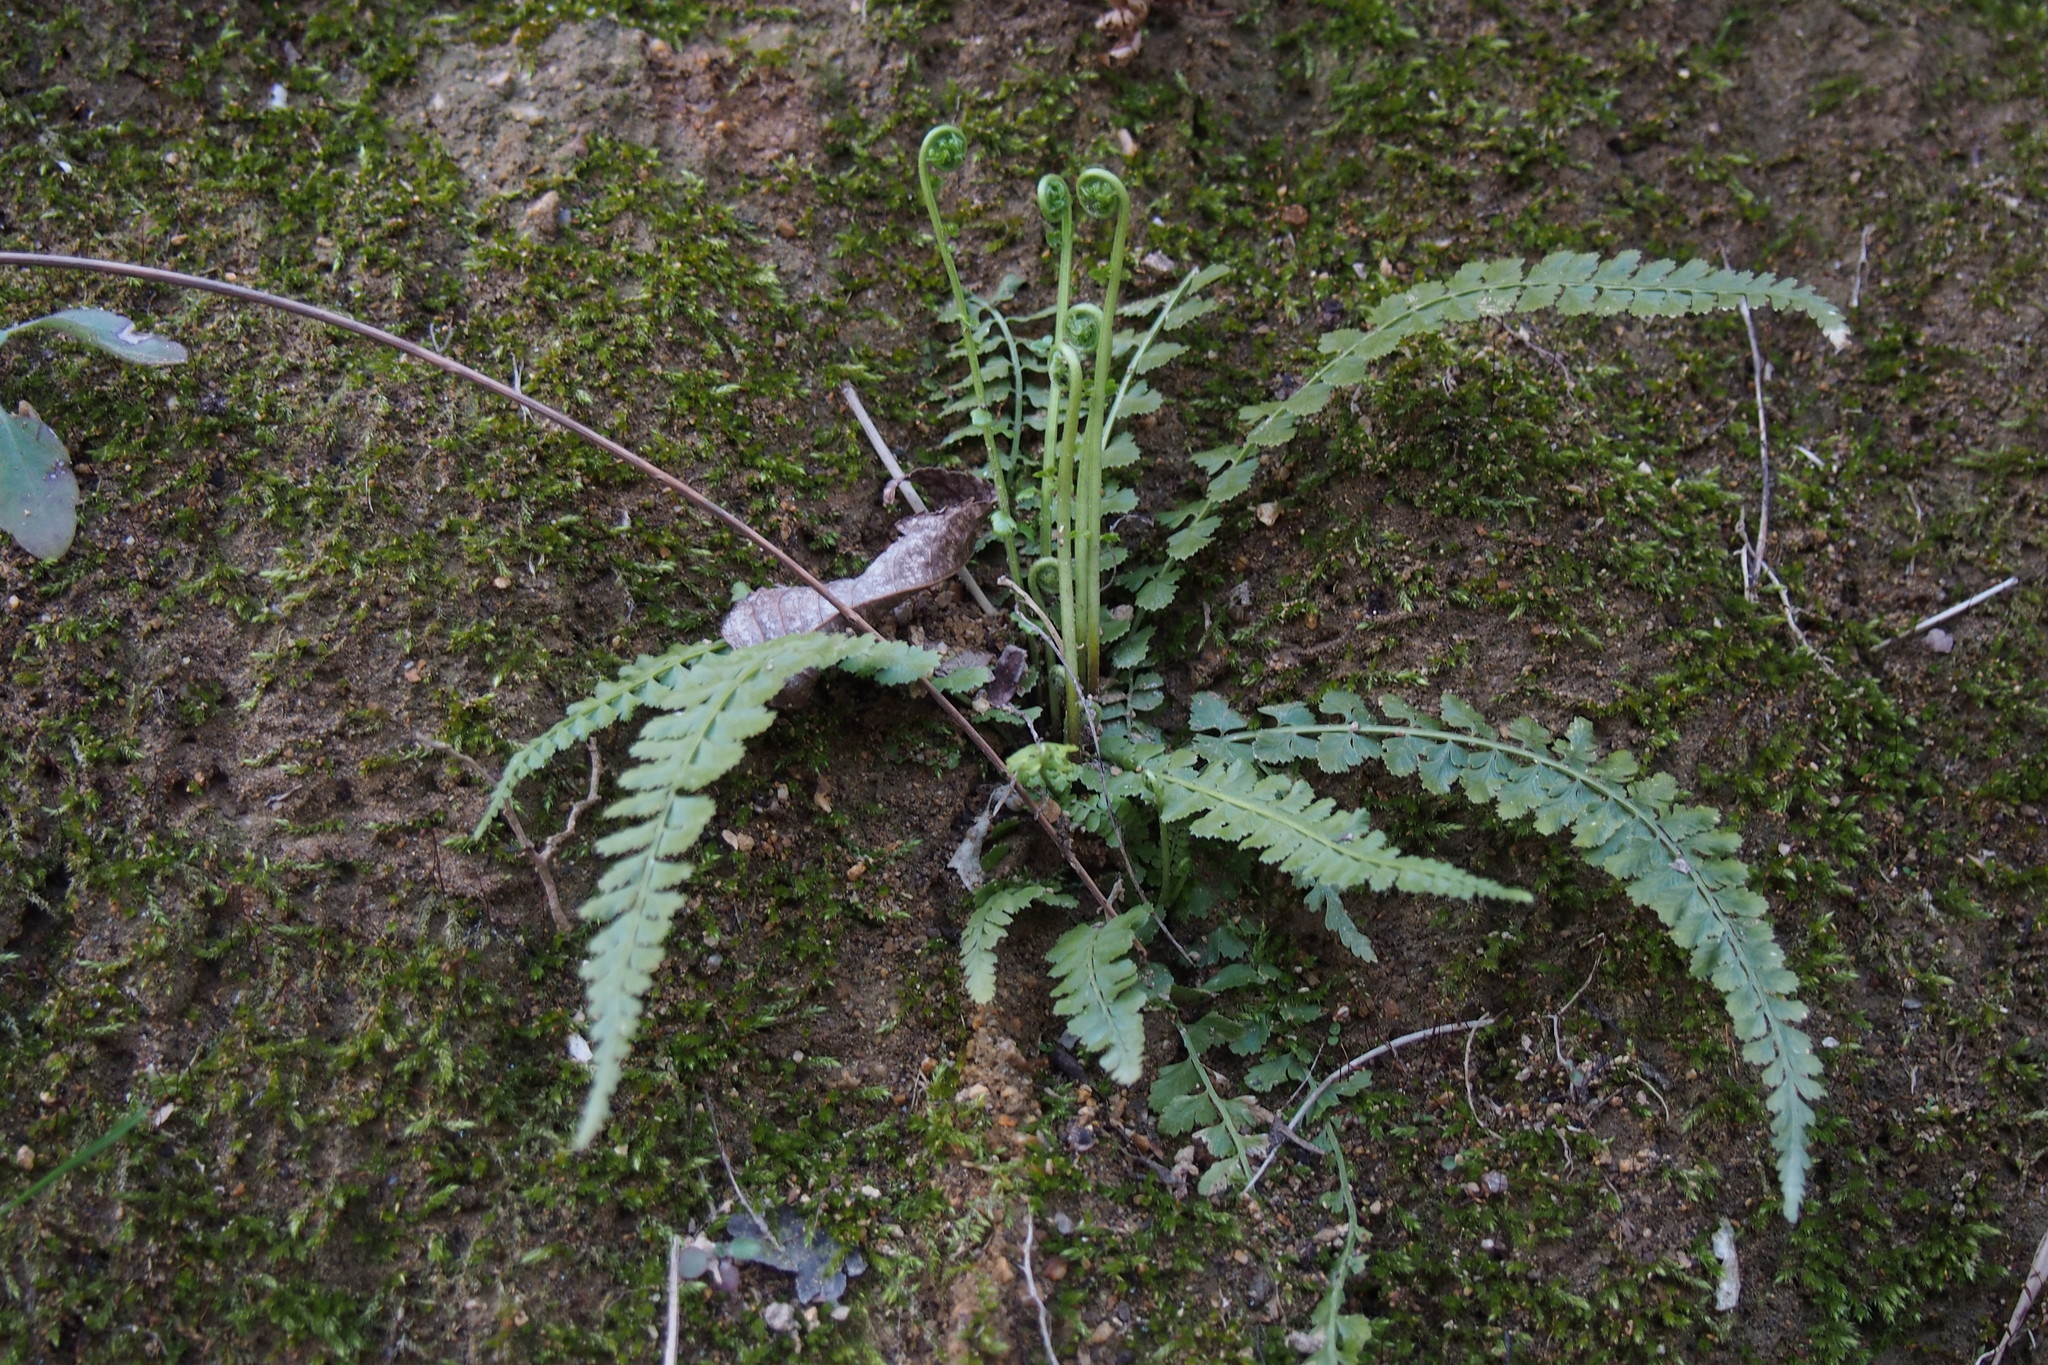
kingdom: Plantae
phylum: Tracheophyta
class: Polypodiopsida
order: Polypodiales
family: Aspleniaceae
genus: Asplenium
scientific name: Asplenium incisum
